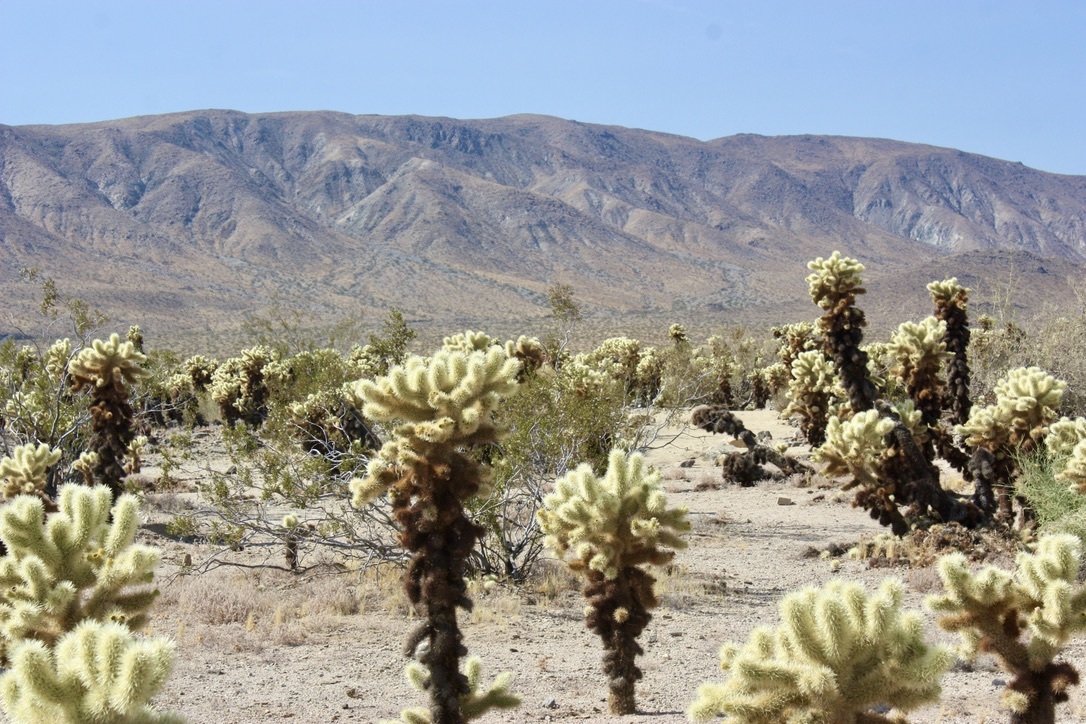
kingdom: Plantae
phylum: Tracheophyta
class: Magnoliopsida
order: Caryophyllales
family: Cactaceae
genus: Cylindropuntia
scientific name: Cylindropuntia fosbergii
